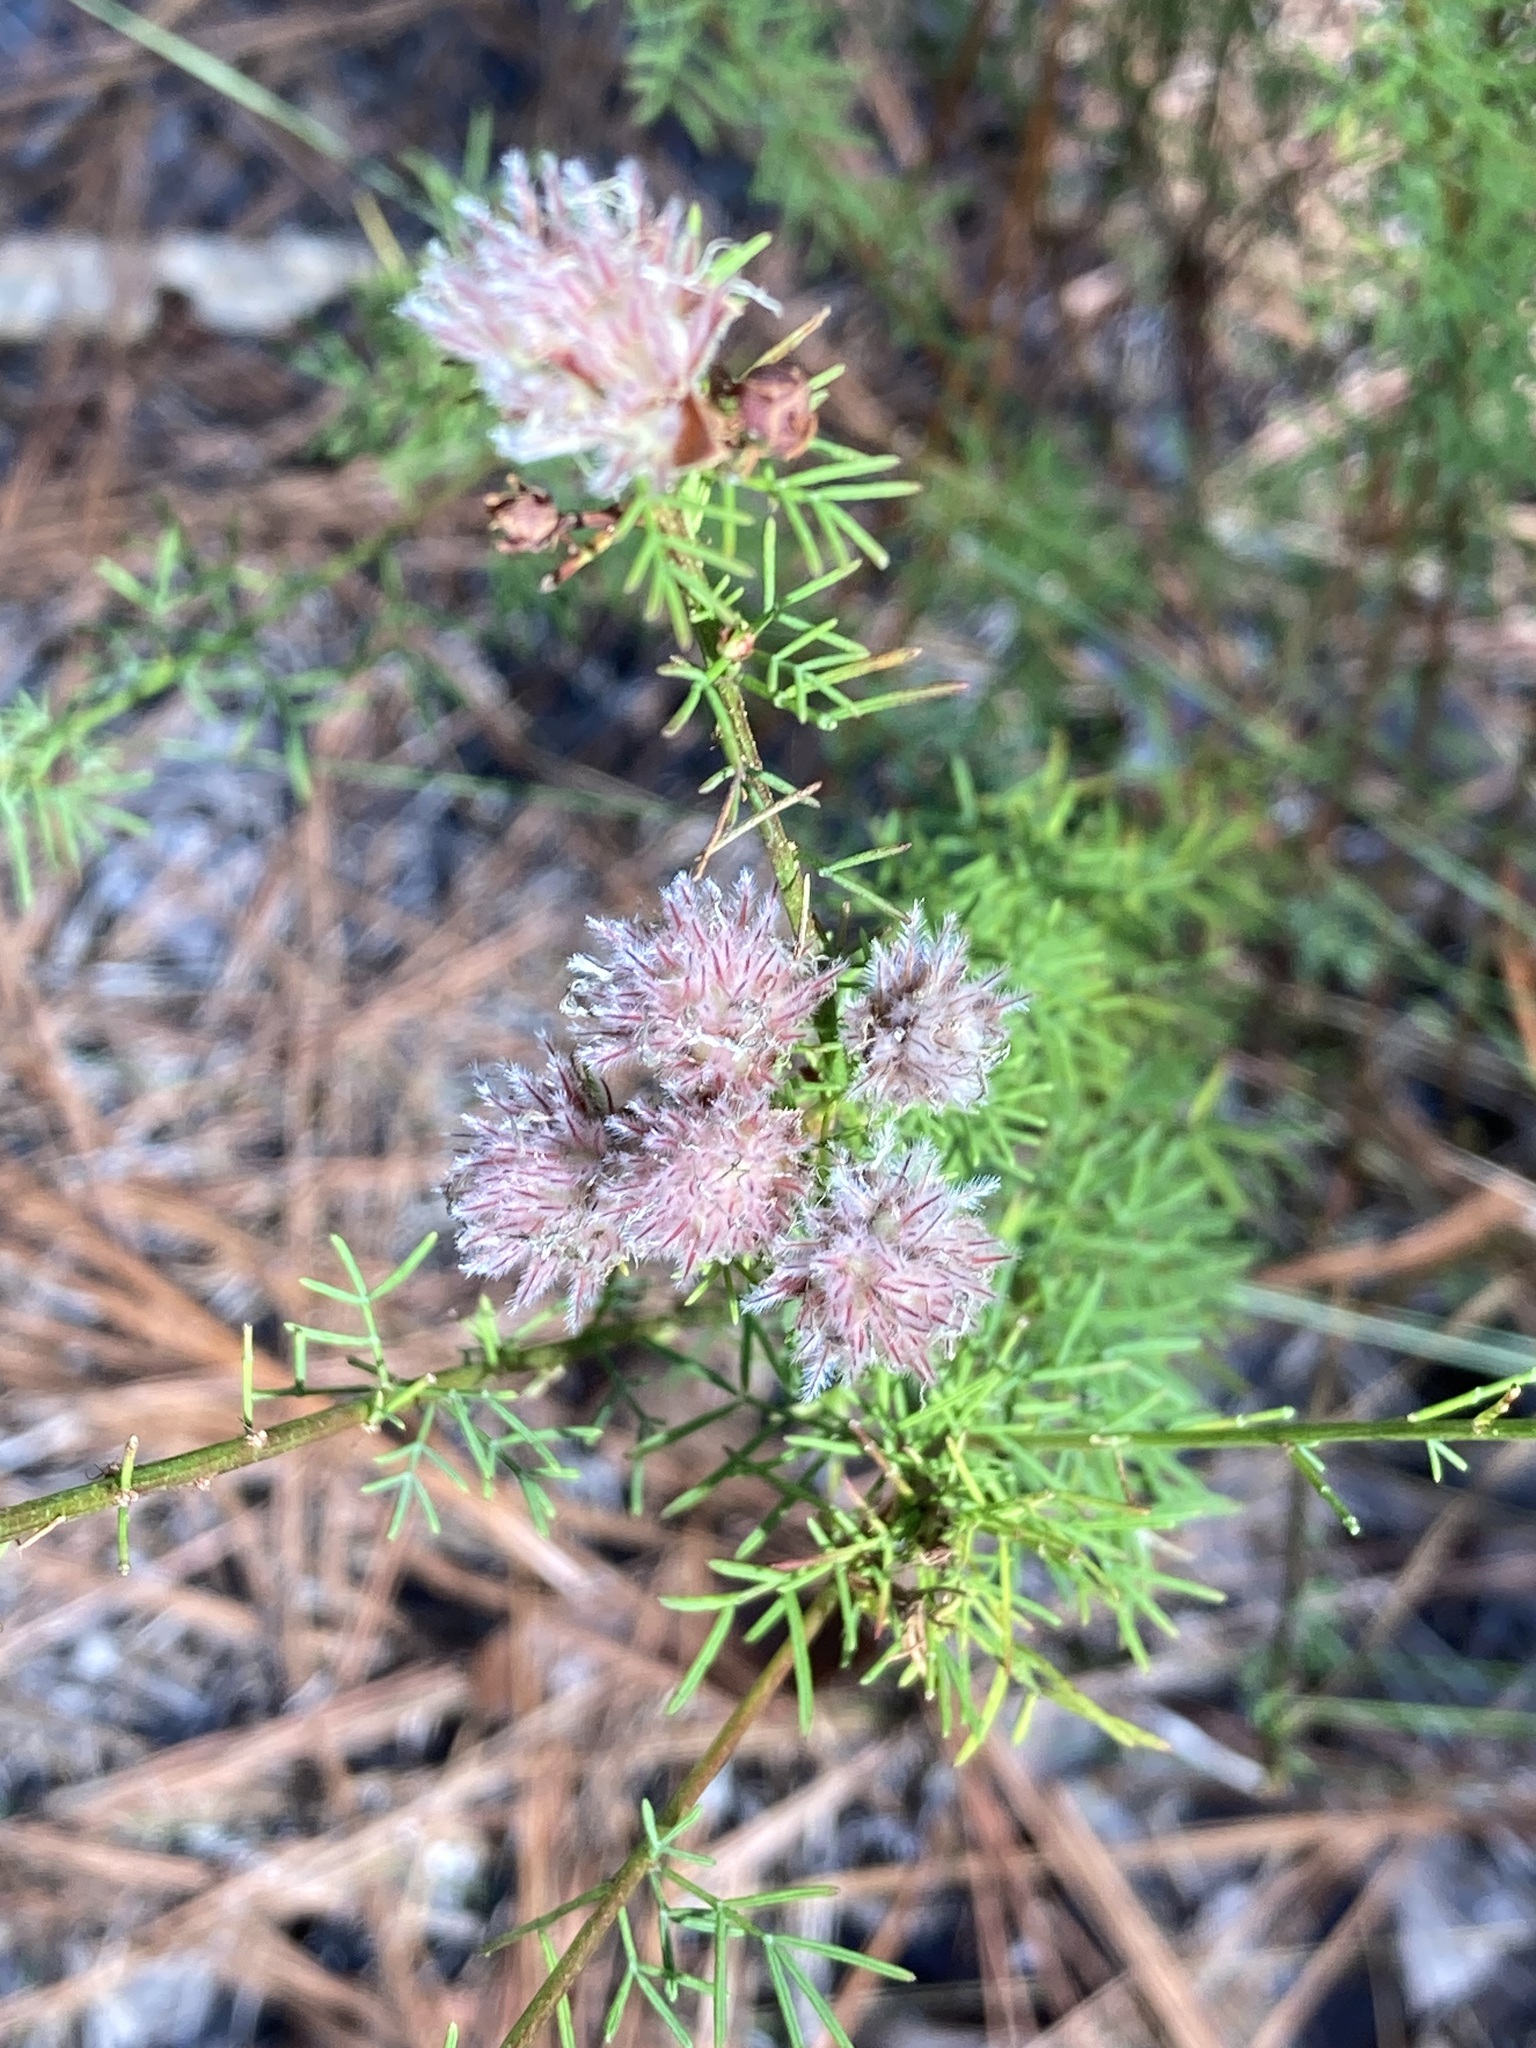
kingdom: Plantae
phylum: Tracheophyta
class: Magnoliopsida
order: Fabales
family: Fabaceae
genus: Dalea
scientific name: Dalea pinnata
